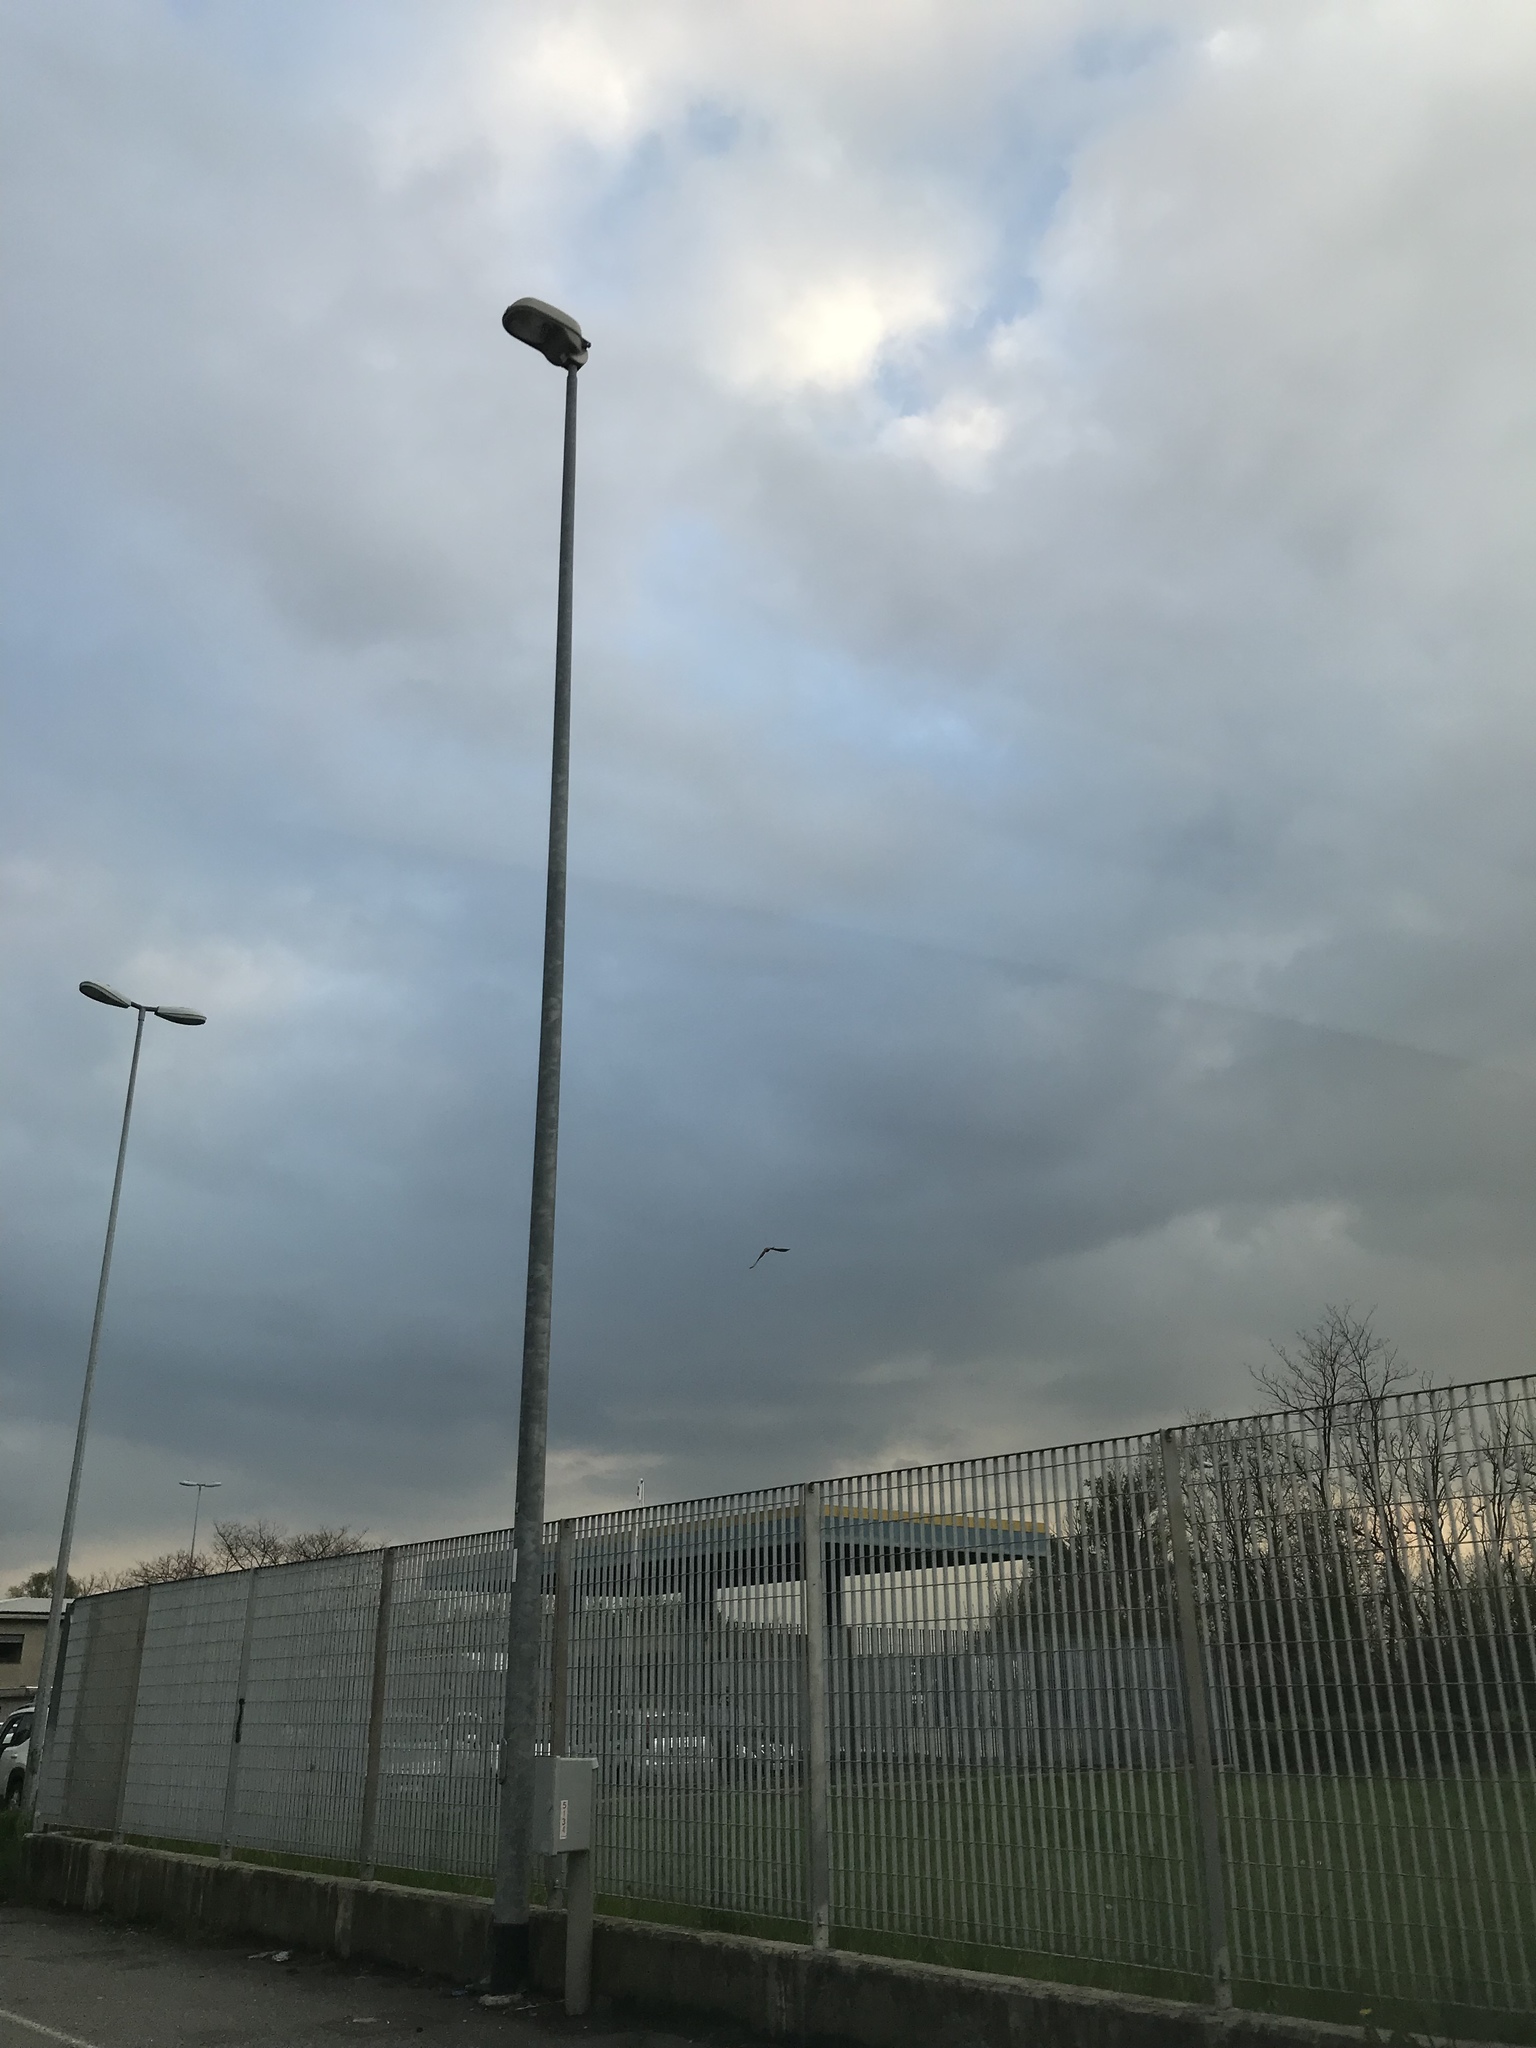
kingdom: Animalia
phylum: Chordata
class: Aves
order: Falconiformes
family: Falconidae
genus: Falco
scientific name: Falco tinnunculus
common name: Common kestrel
